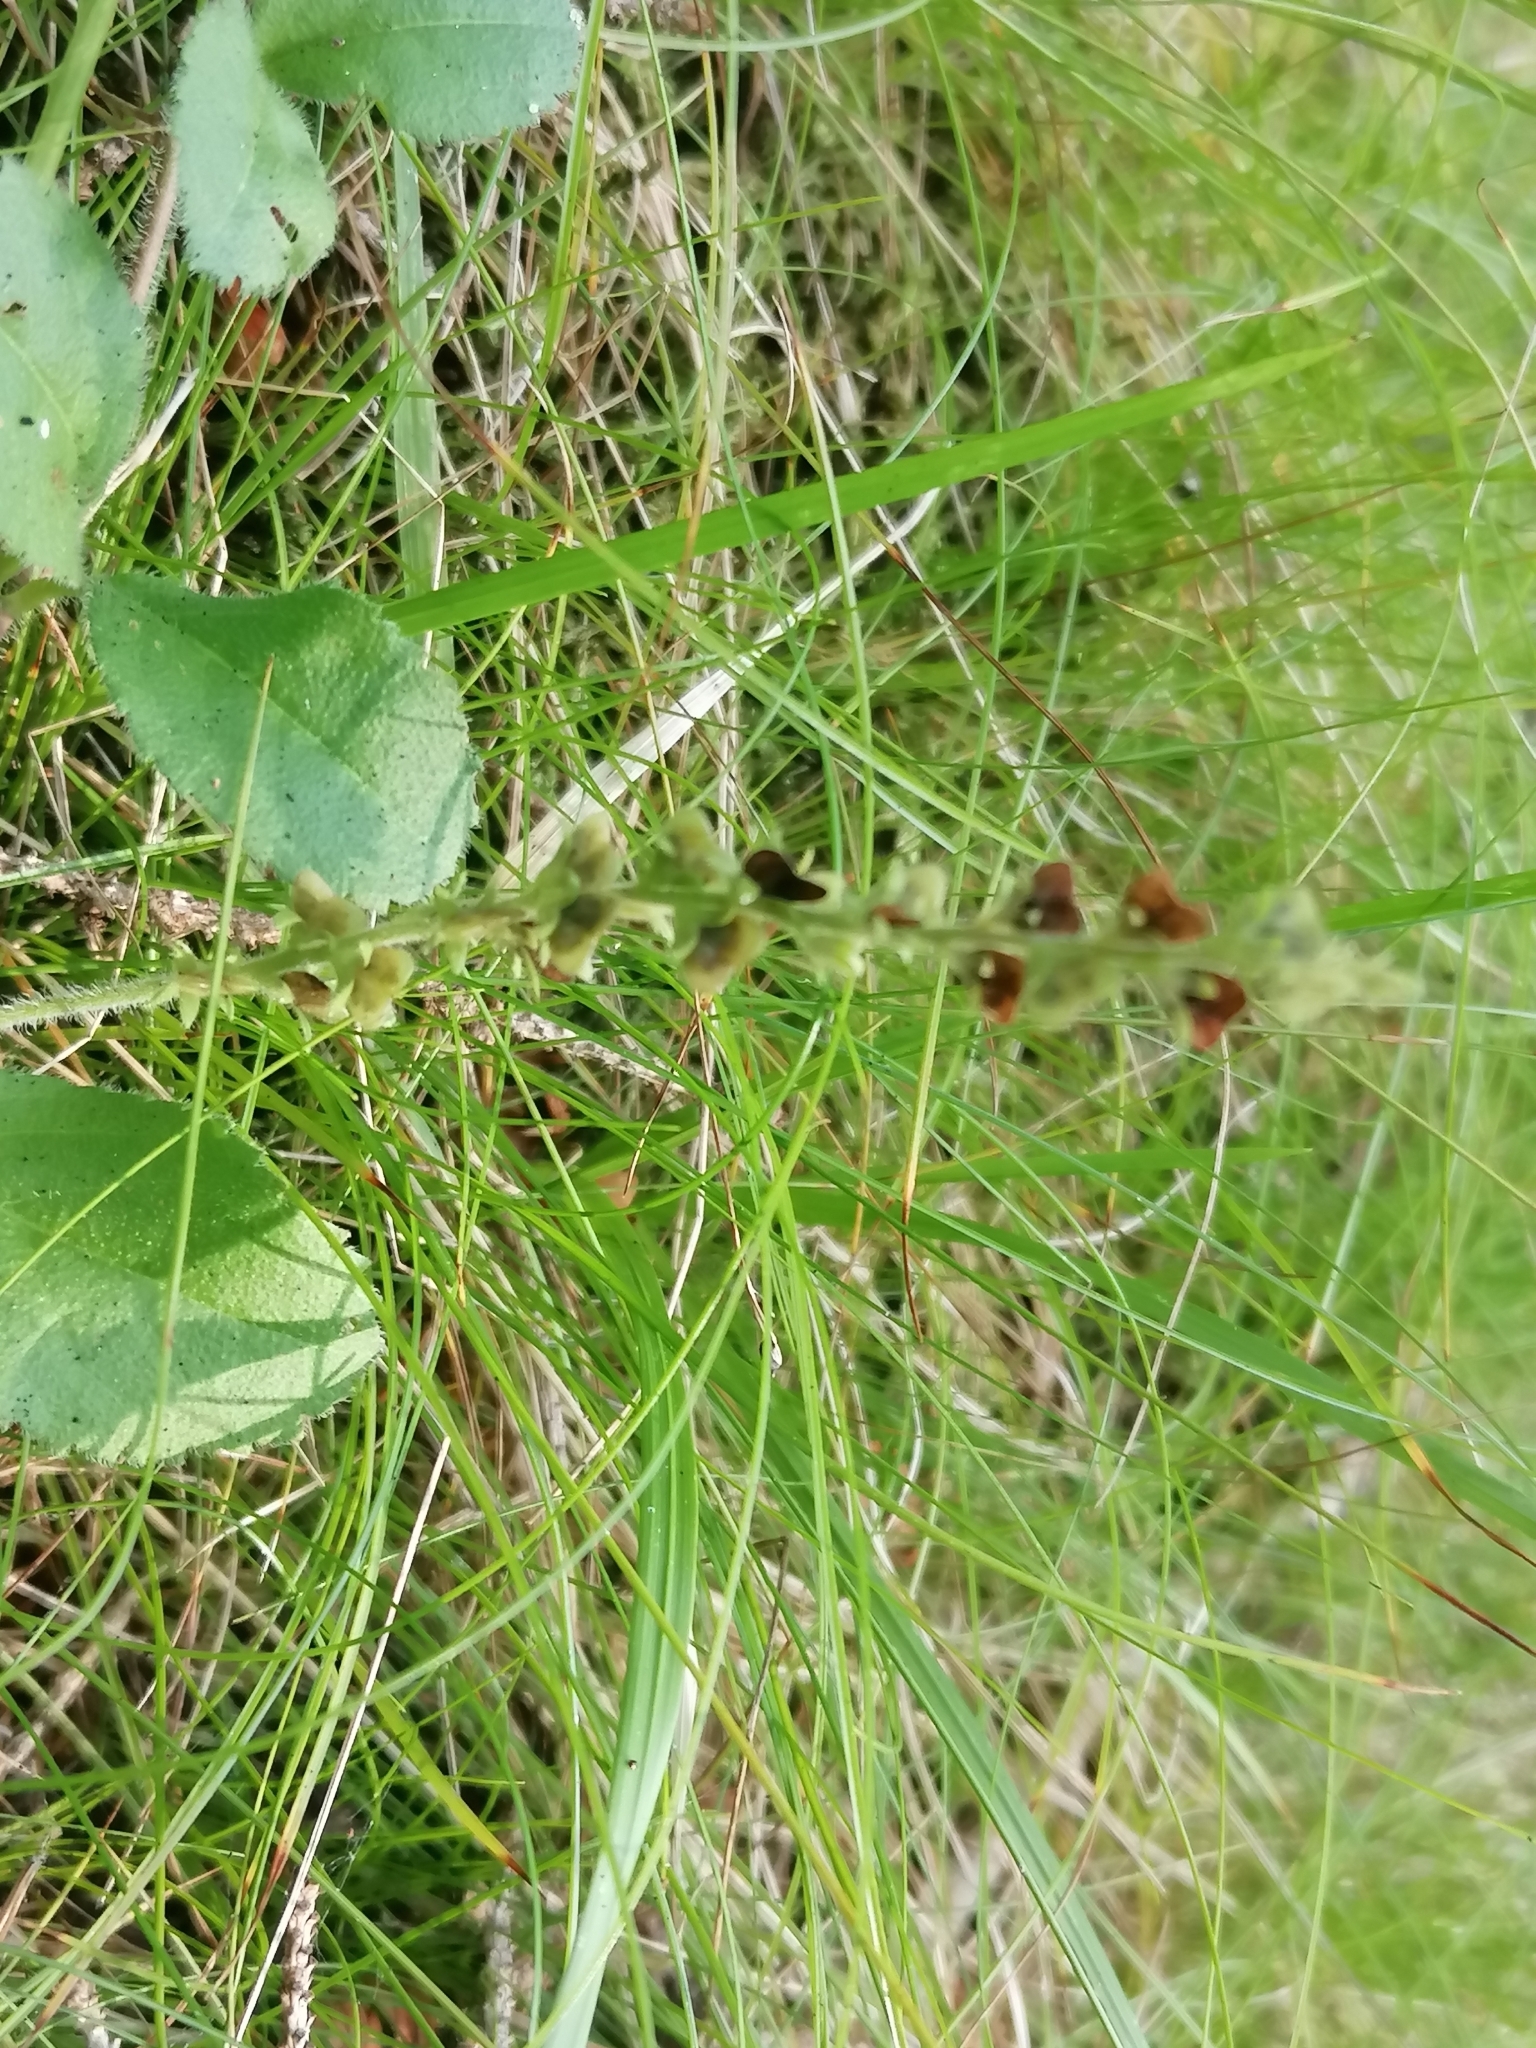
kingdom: Plantae
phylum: Tracheophyta
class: Magnoliopsida
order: Lamiales
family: Plantaginaceae
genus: Veronica
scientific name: Veronica officinalis
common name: Common speedwell
